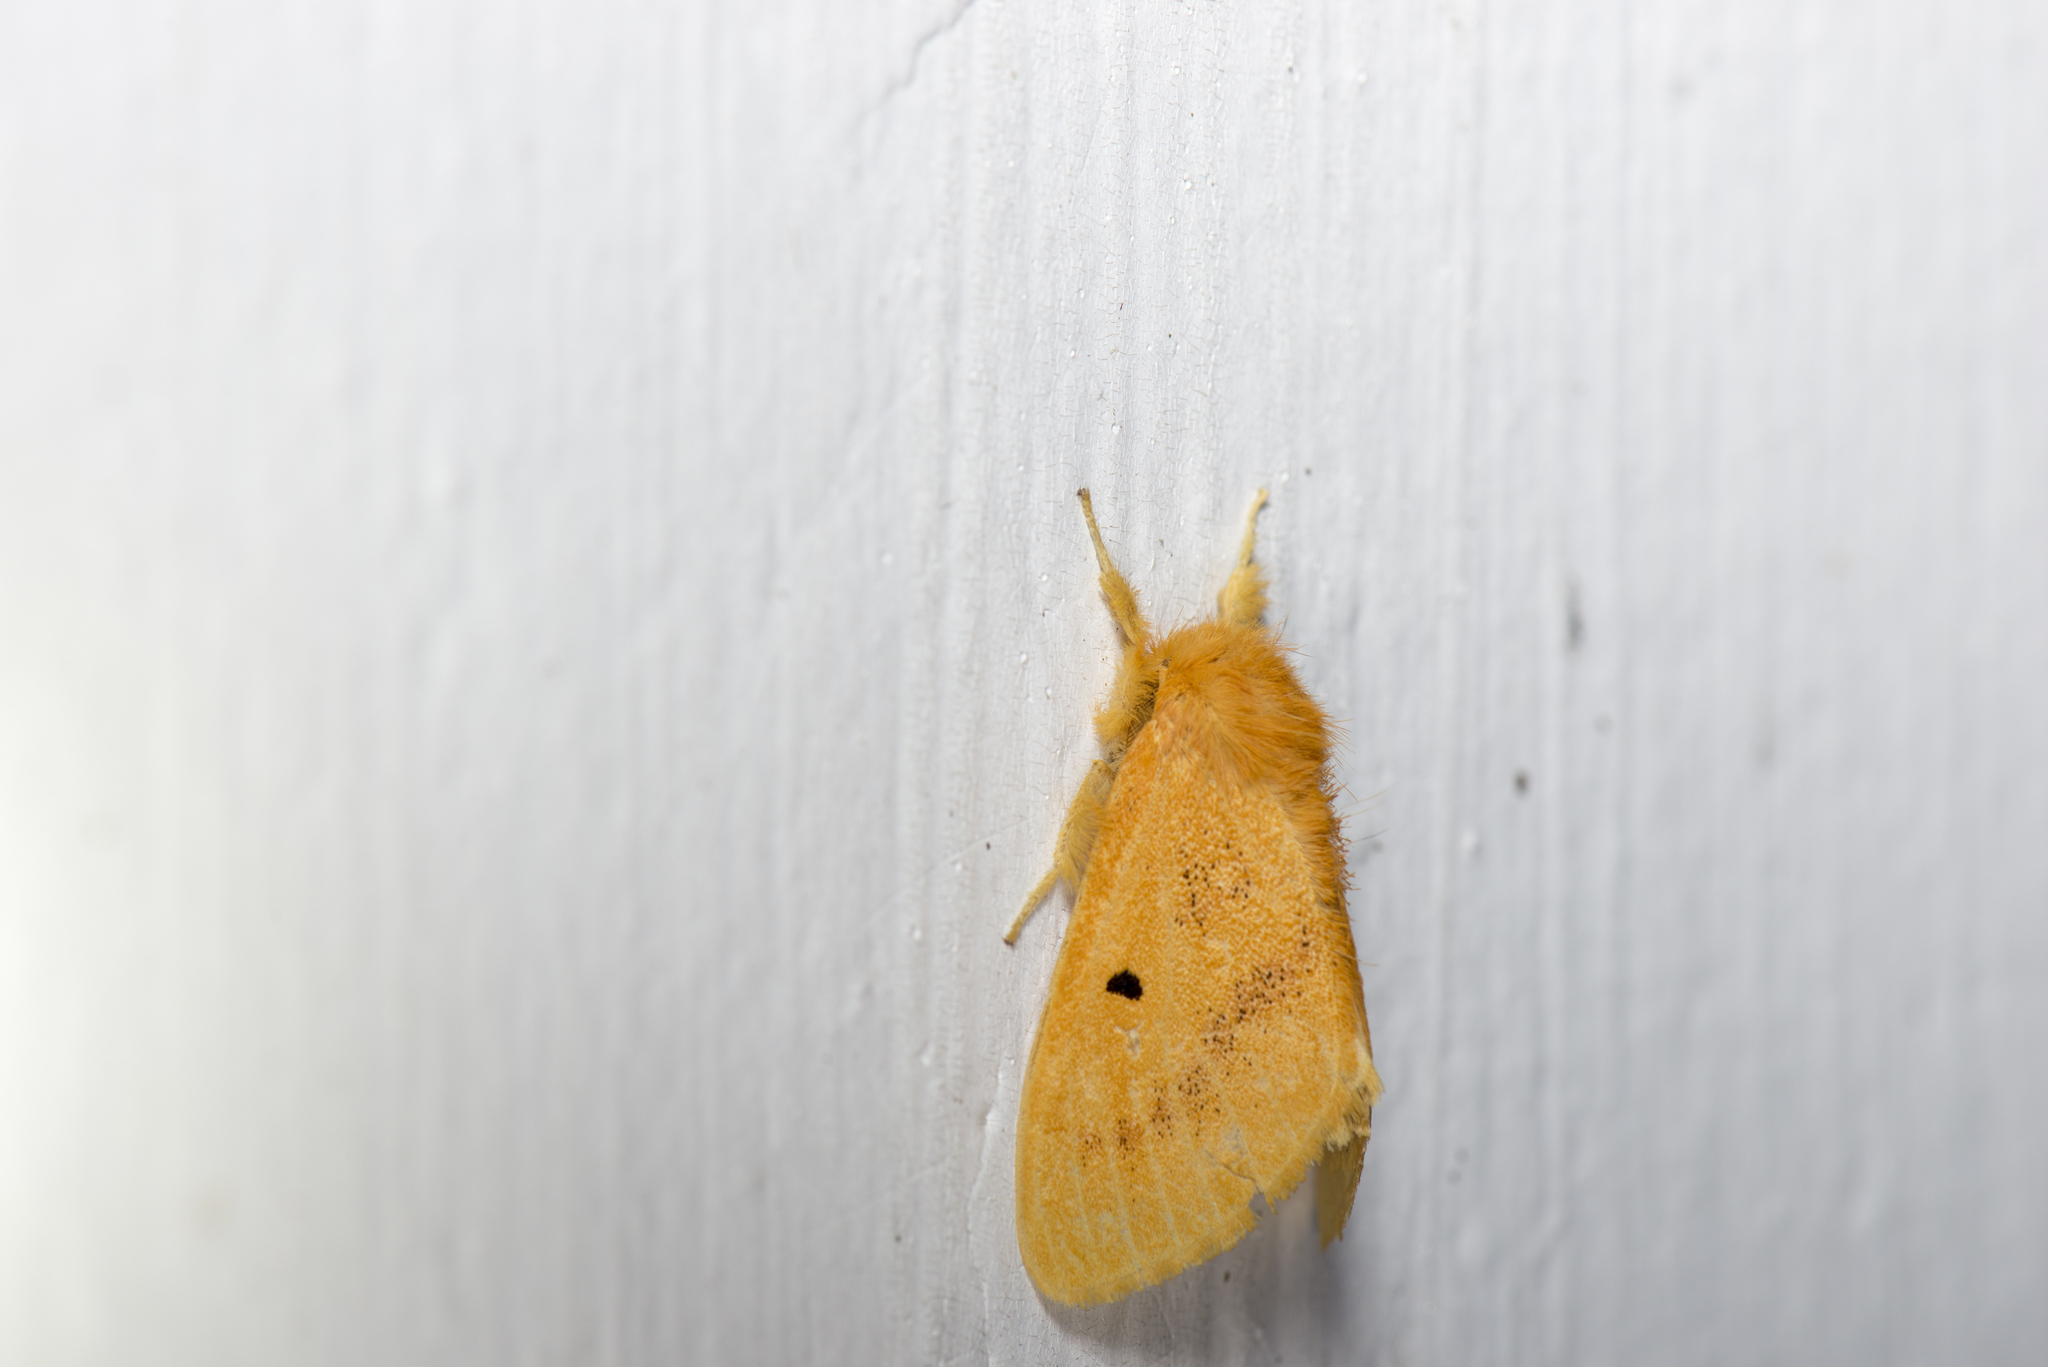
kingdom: Animalia
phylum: Arthropoda
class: Insecta
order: Lepidoptera
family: Erebidae
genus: Euproctis
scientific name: Euproctis nigricauda
